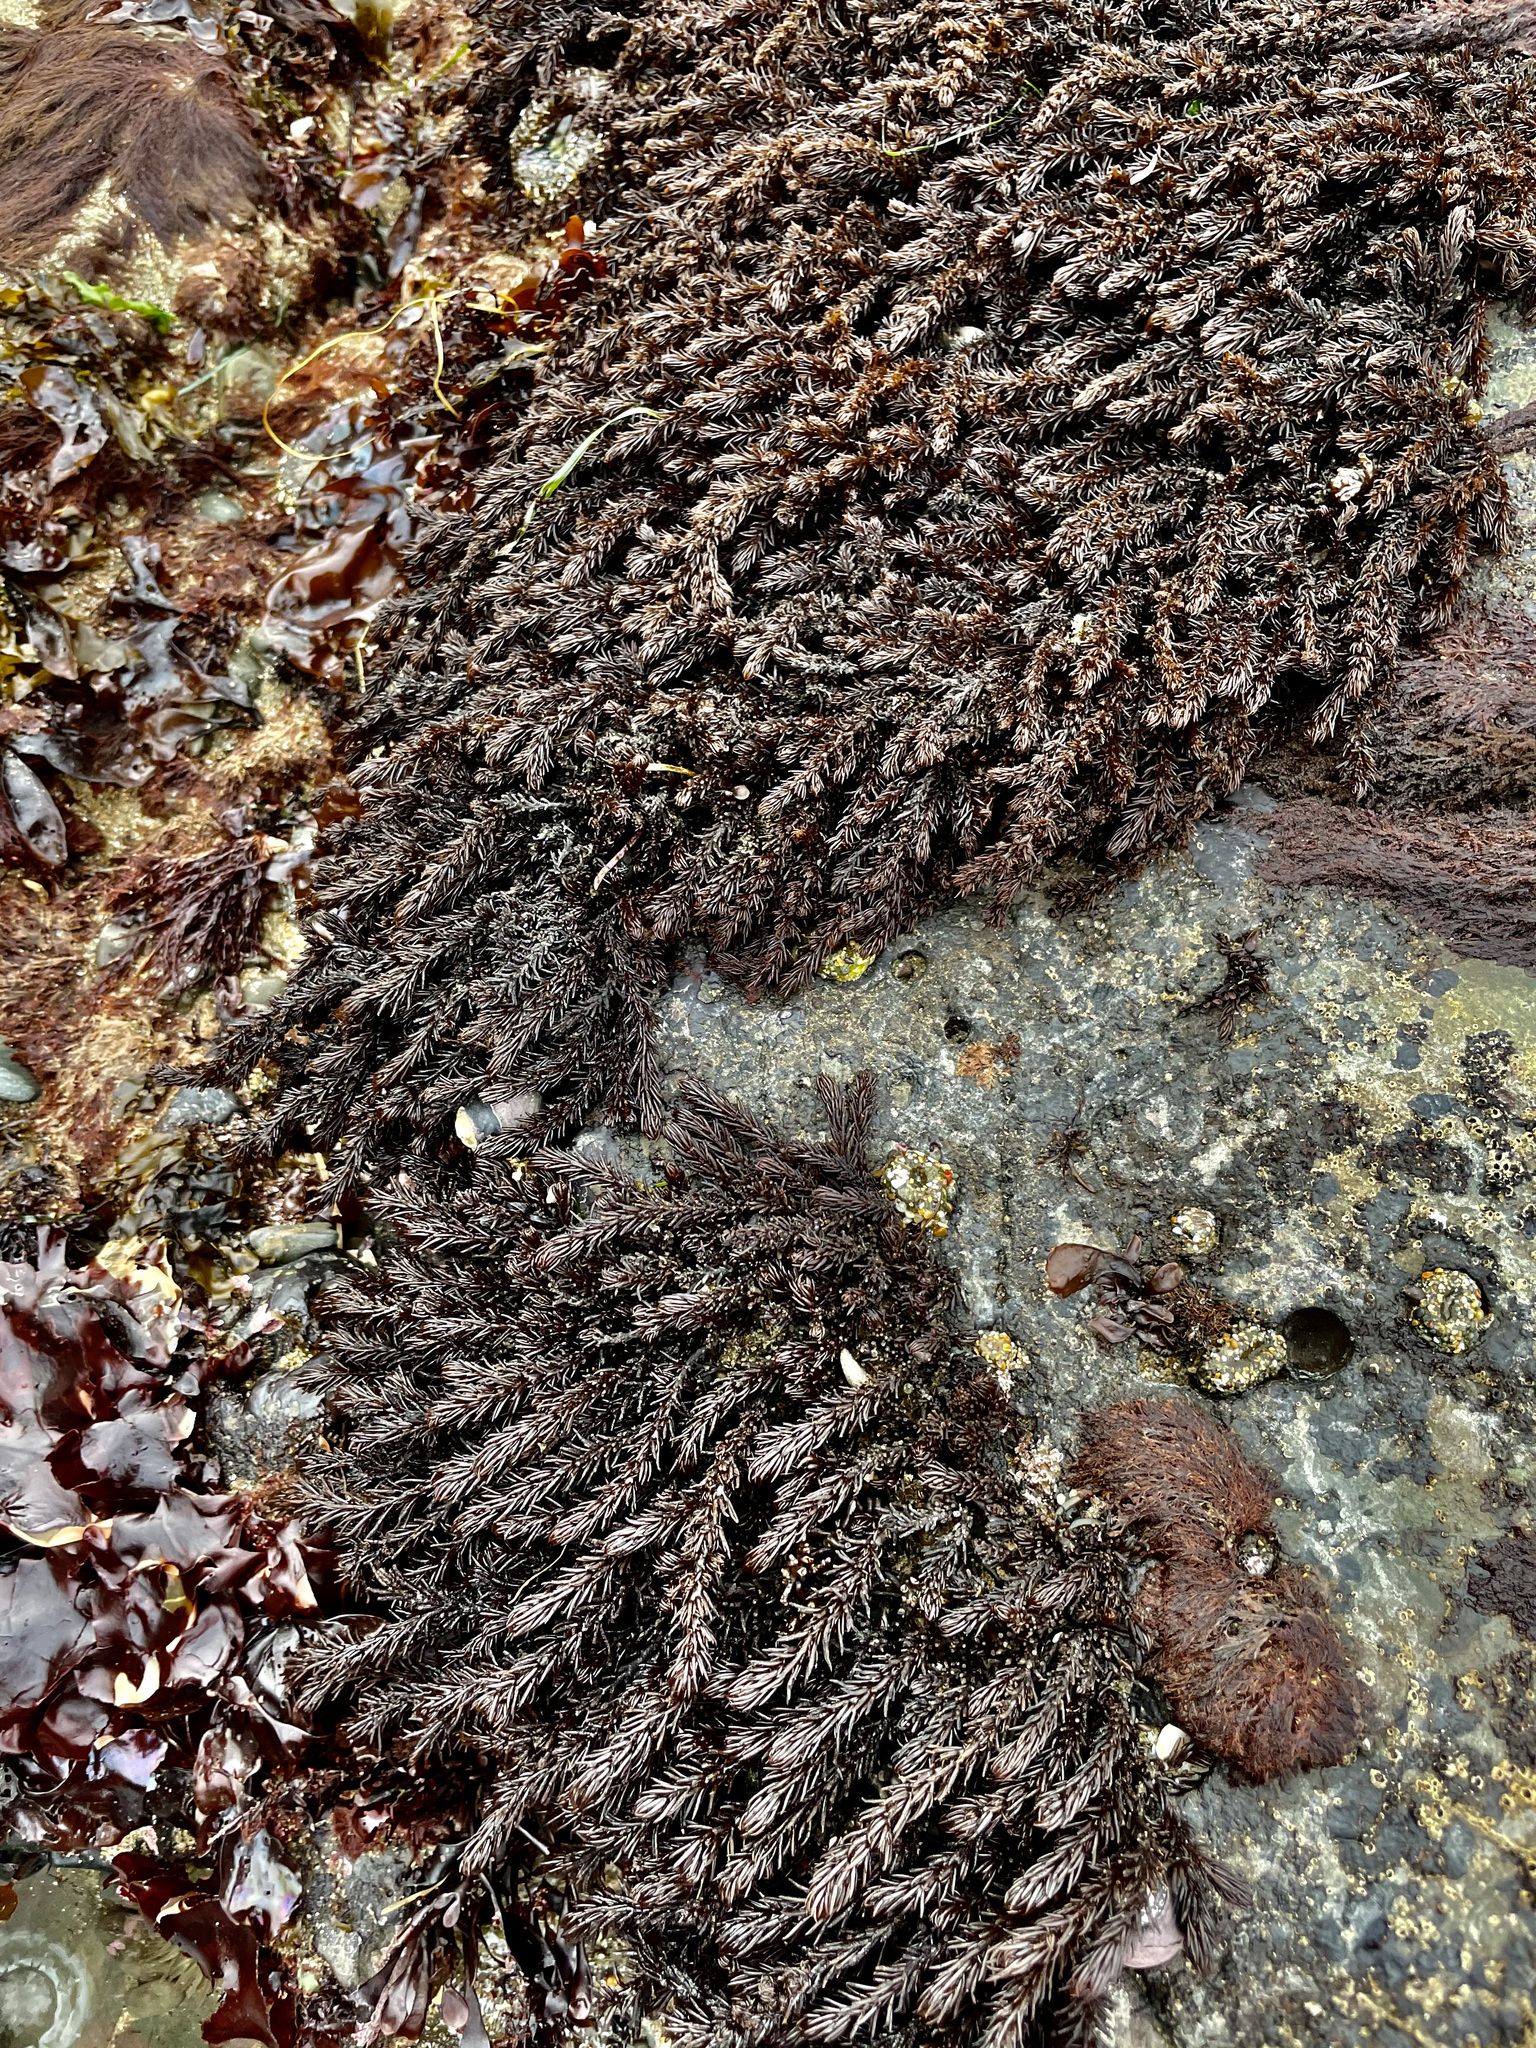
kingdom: Plantae
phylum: Rhodophyta
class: Florideophyceae
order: Ceramiales
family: Rhodomelaceae
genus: Neorhodomela
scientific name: Neorhodomela larix
